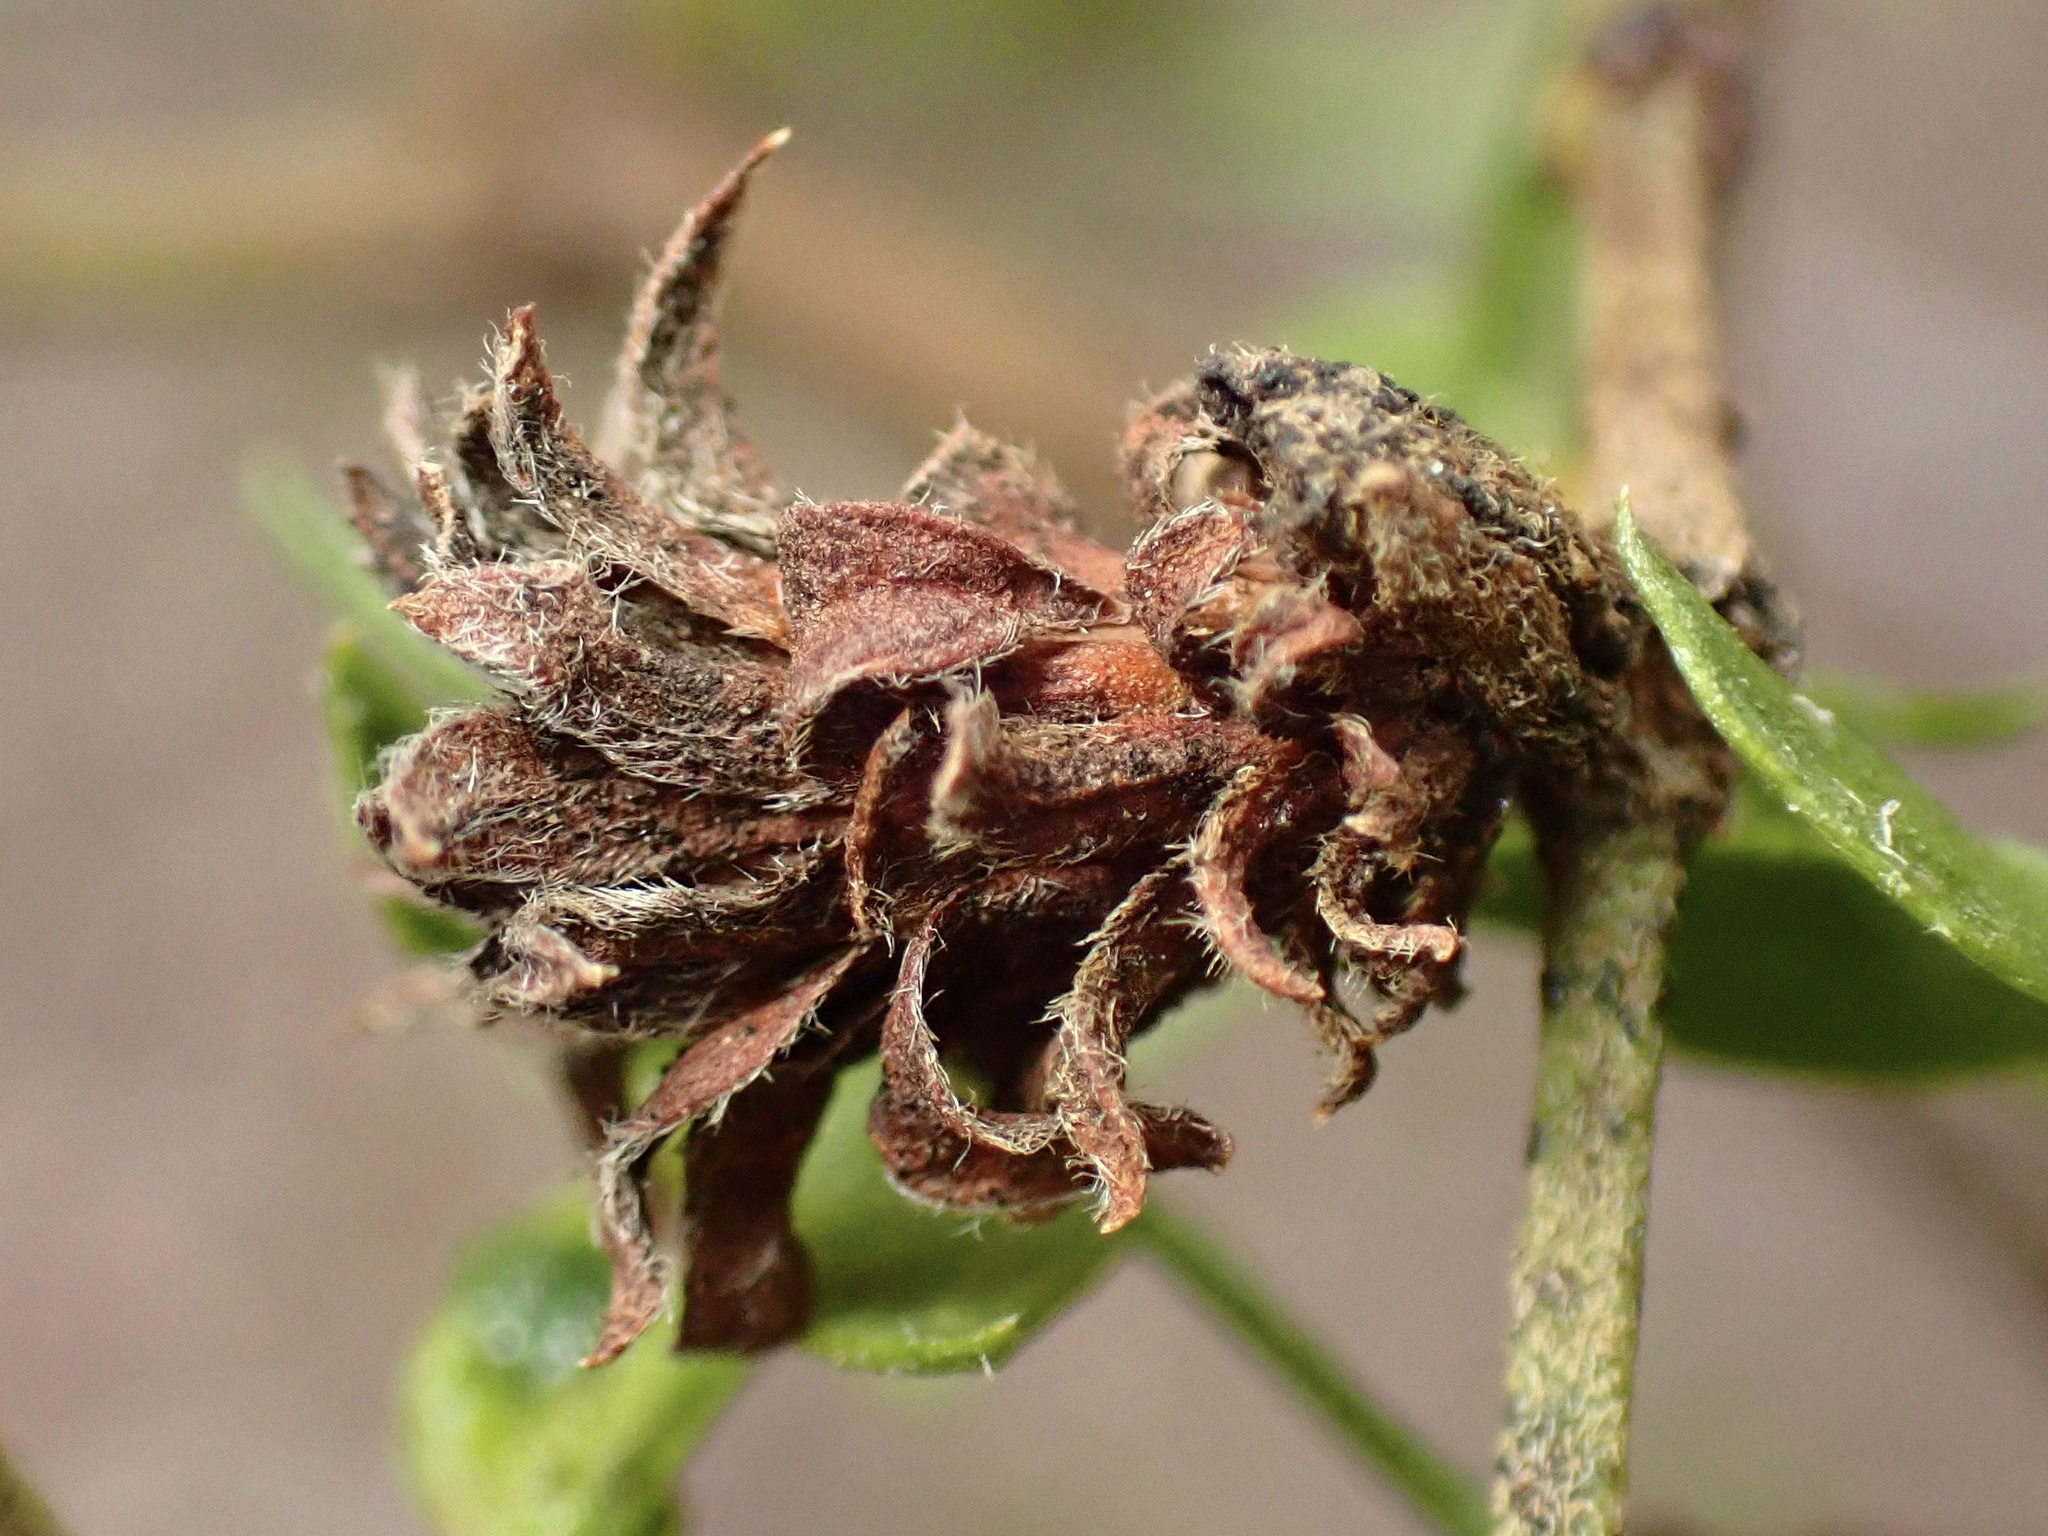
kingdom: Animalia
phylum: Arthropoda
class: Insecta
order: Diptera
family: Cecidomyiidae
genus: Asphondylia
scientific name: Asphondylia rosetta
